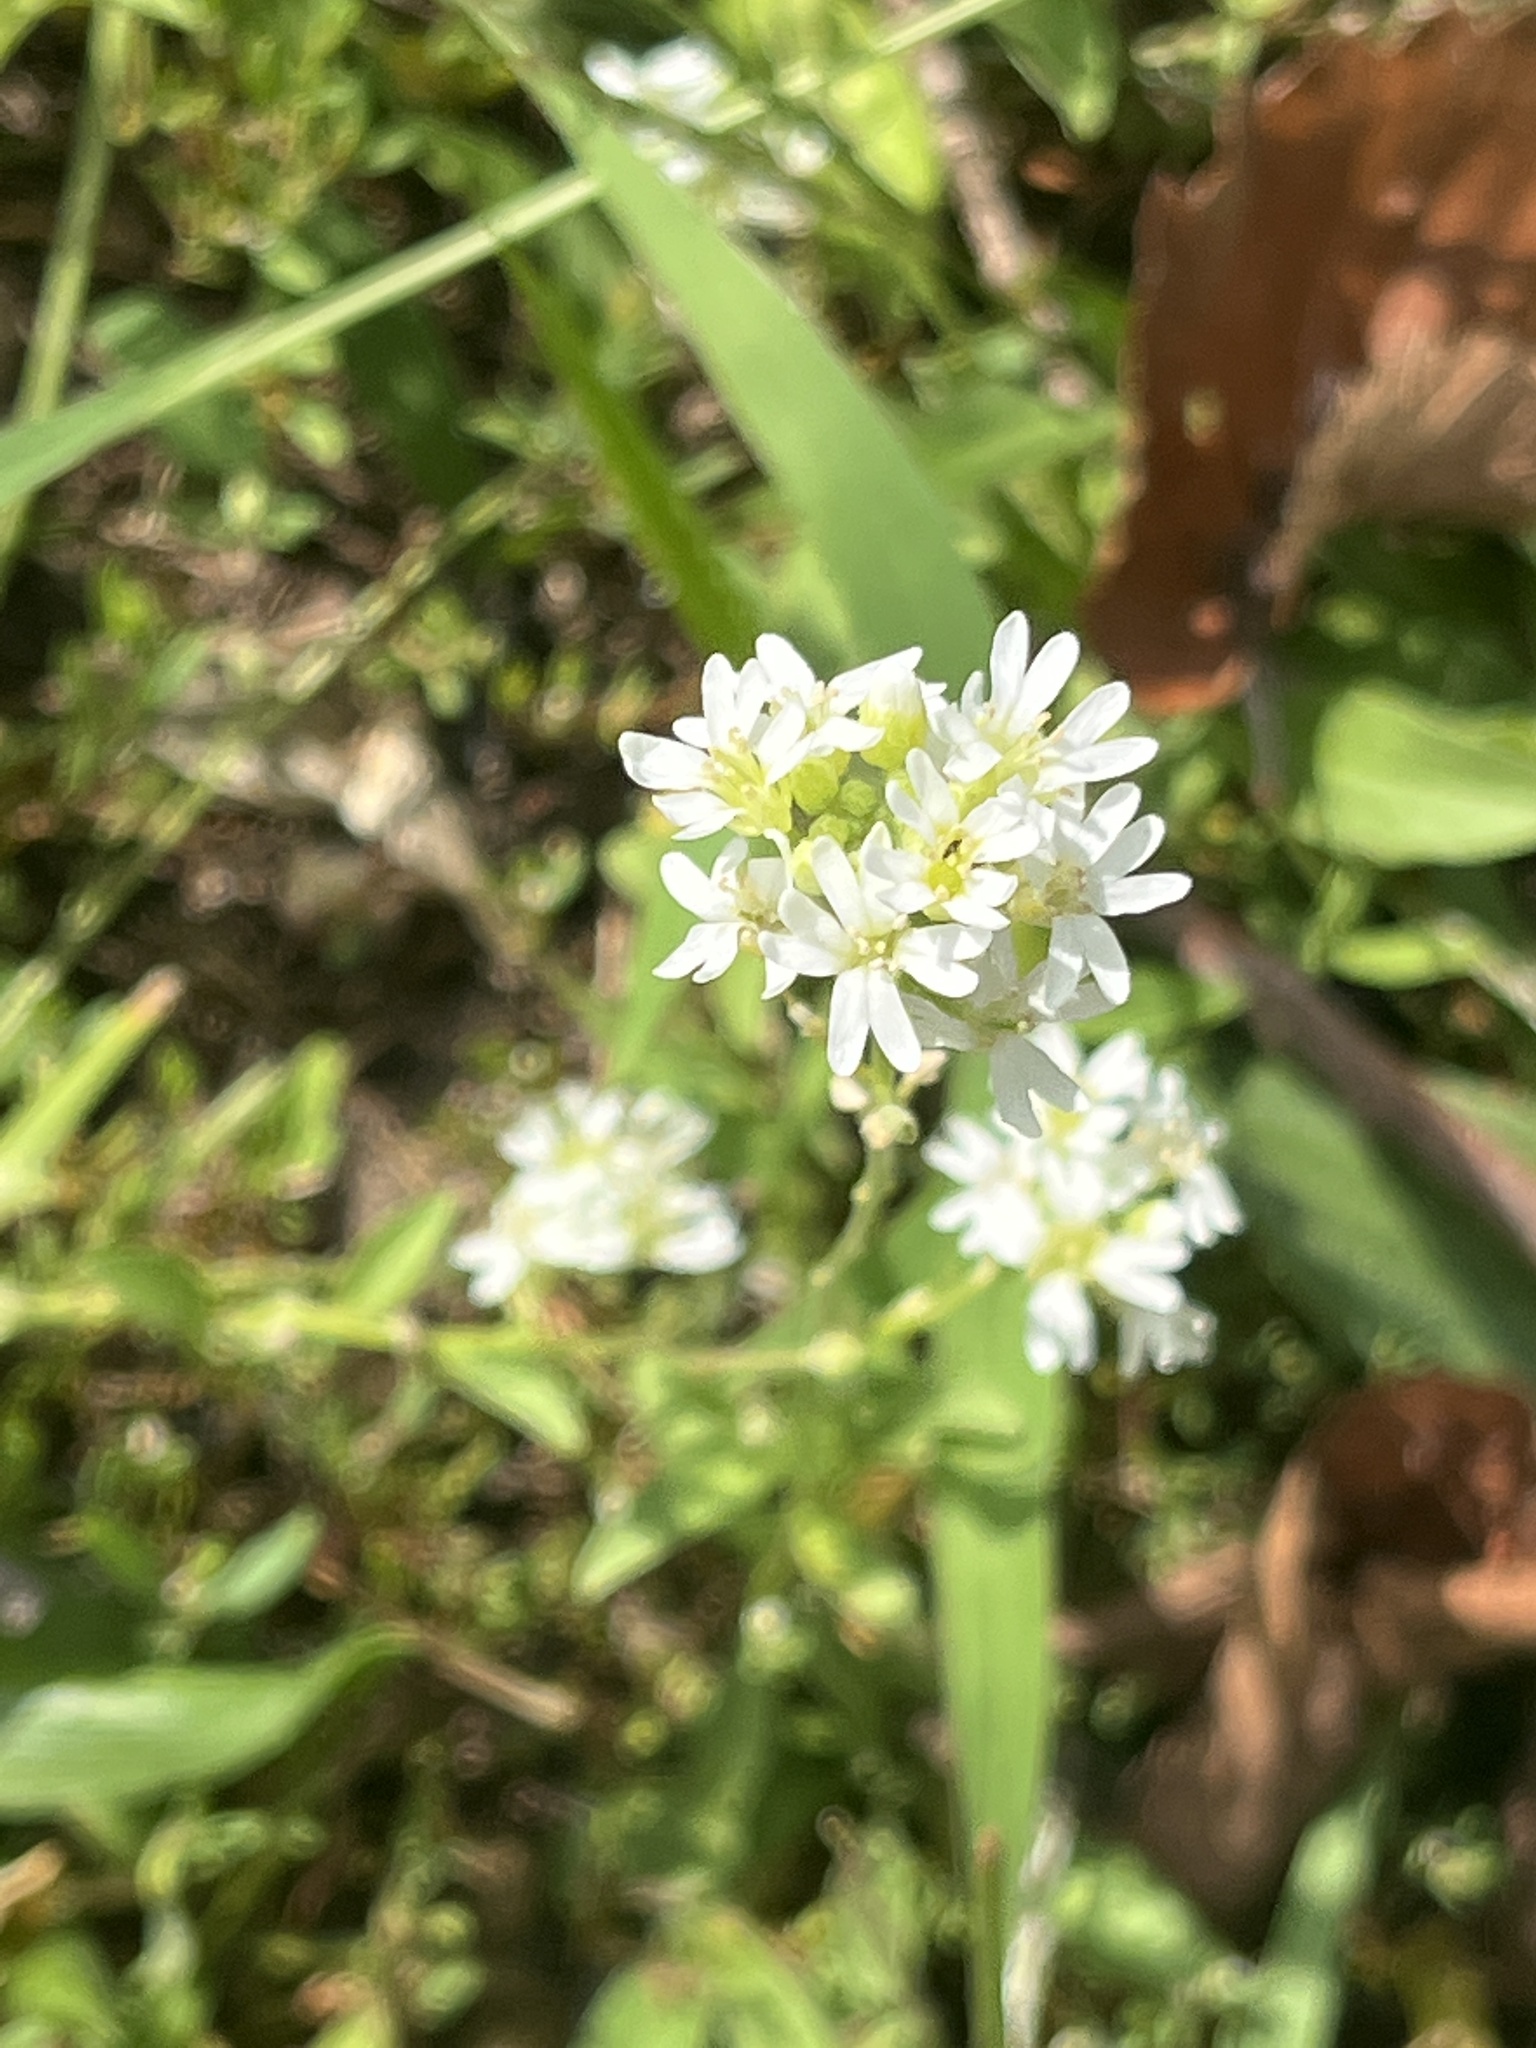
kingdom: Plantae
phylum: Tracheophyta
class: Magnoliopsida
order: Brassicales
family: Brassicaceae
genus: Berteroa
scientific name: Berteroa incana
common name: Hoary alison
